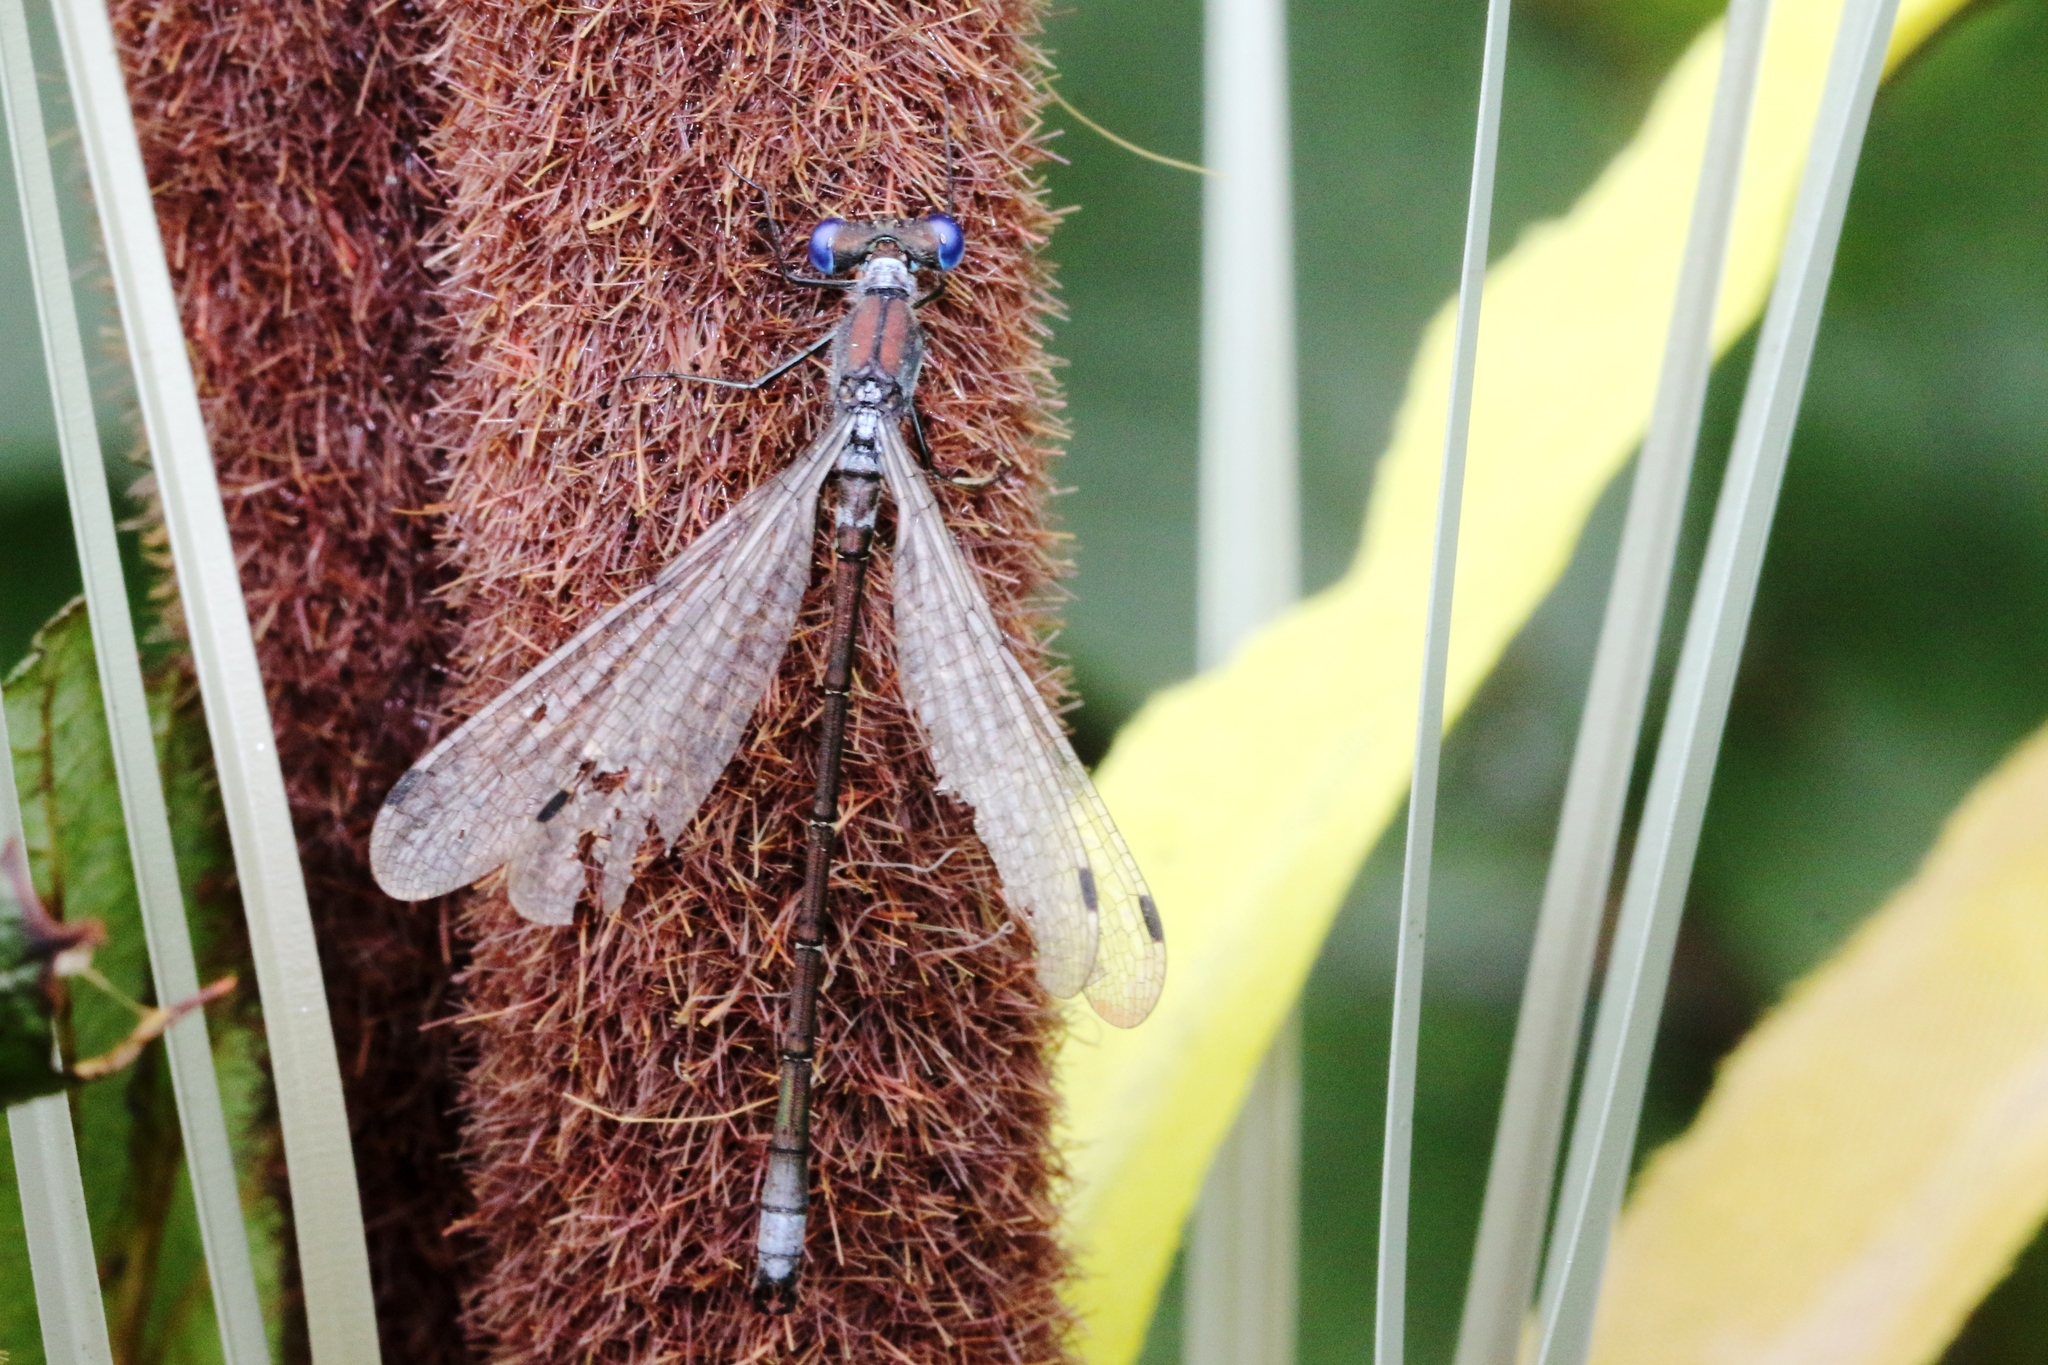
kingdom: Animalia
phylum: Arthropoda
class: Insecta
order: Odonata
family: Lestidae
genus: Lestes
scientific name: Lestes dryas
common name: Scarce emerald damselfly
